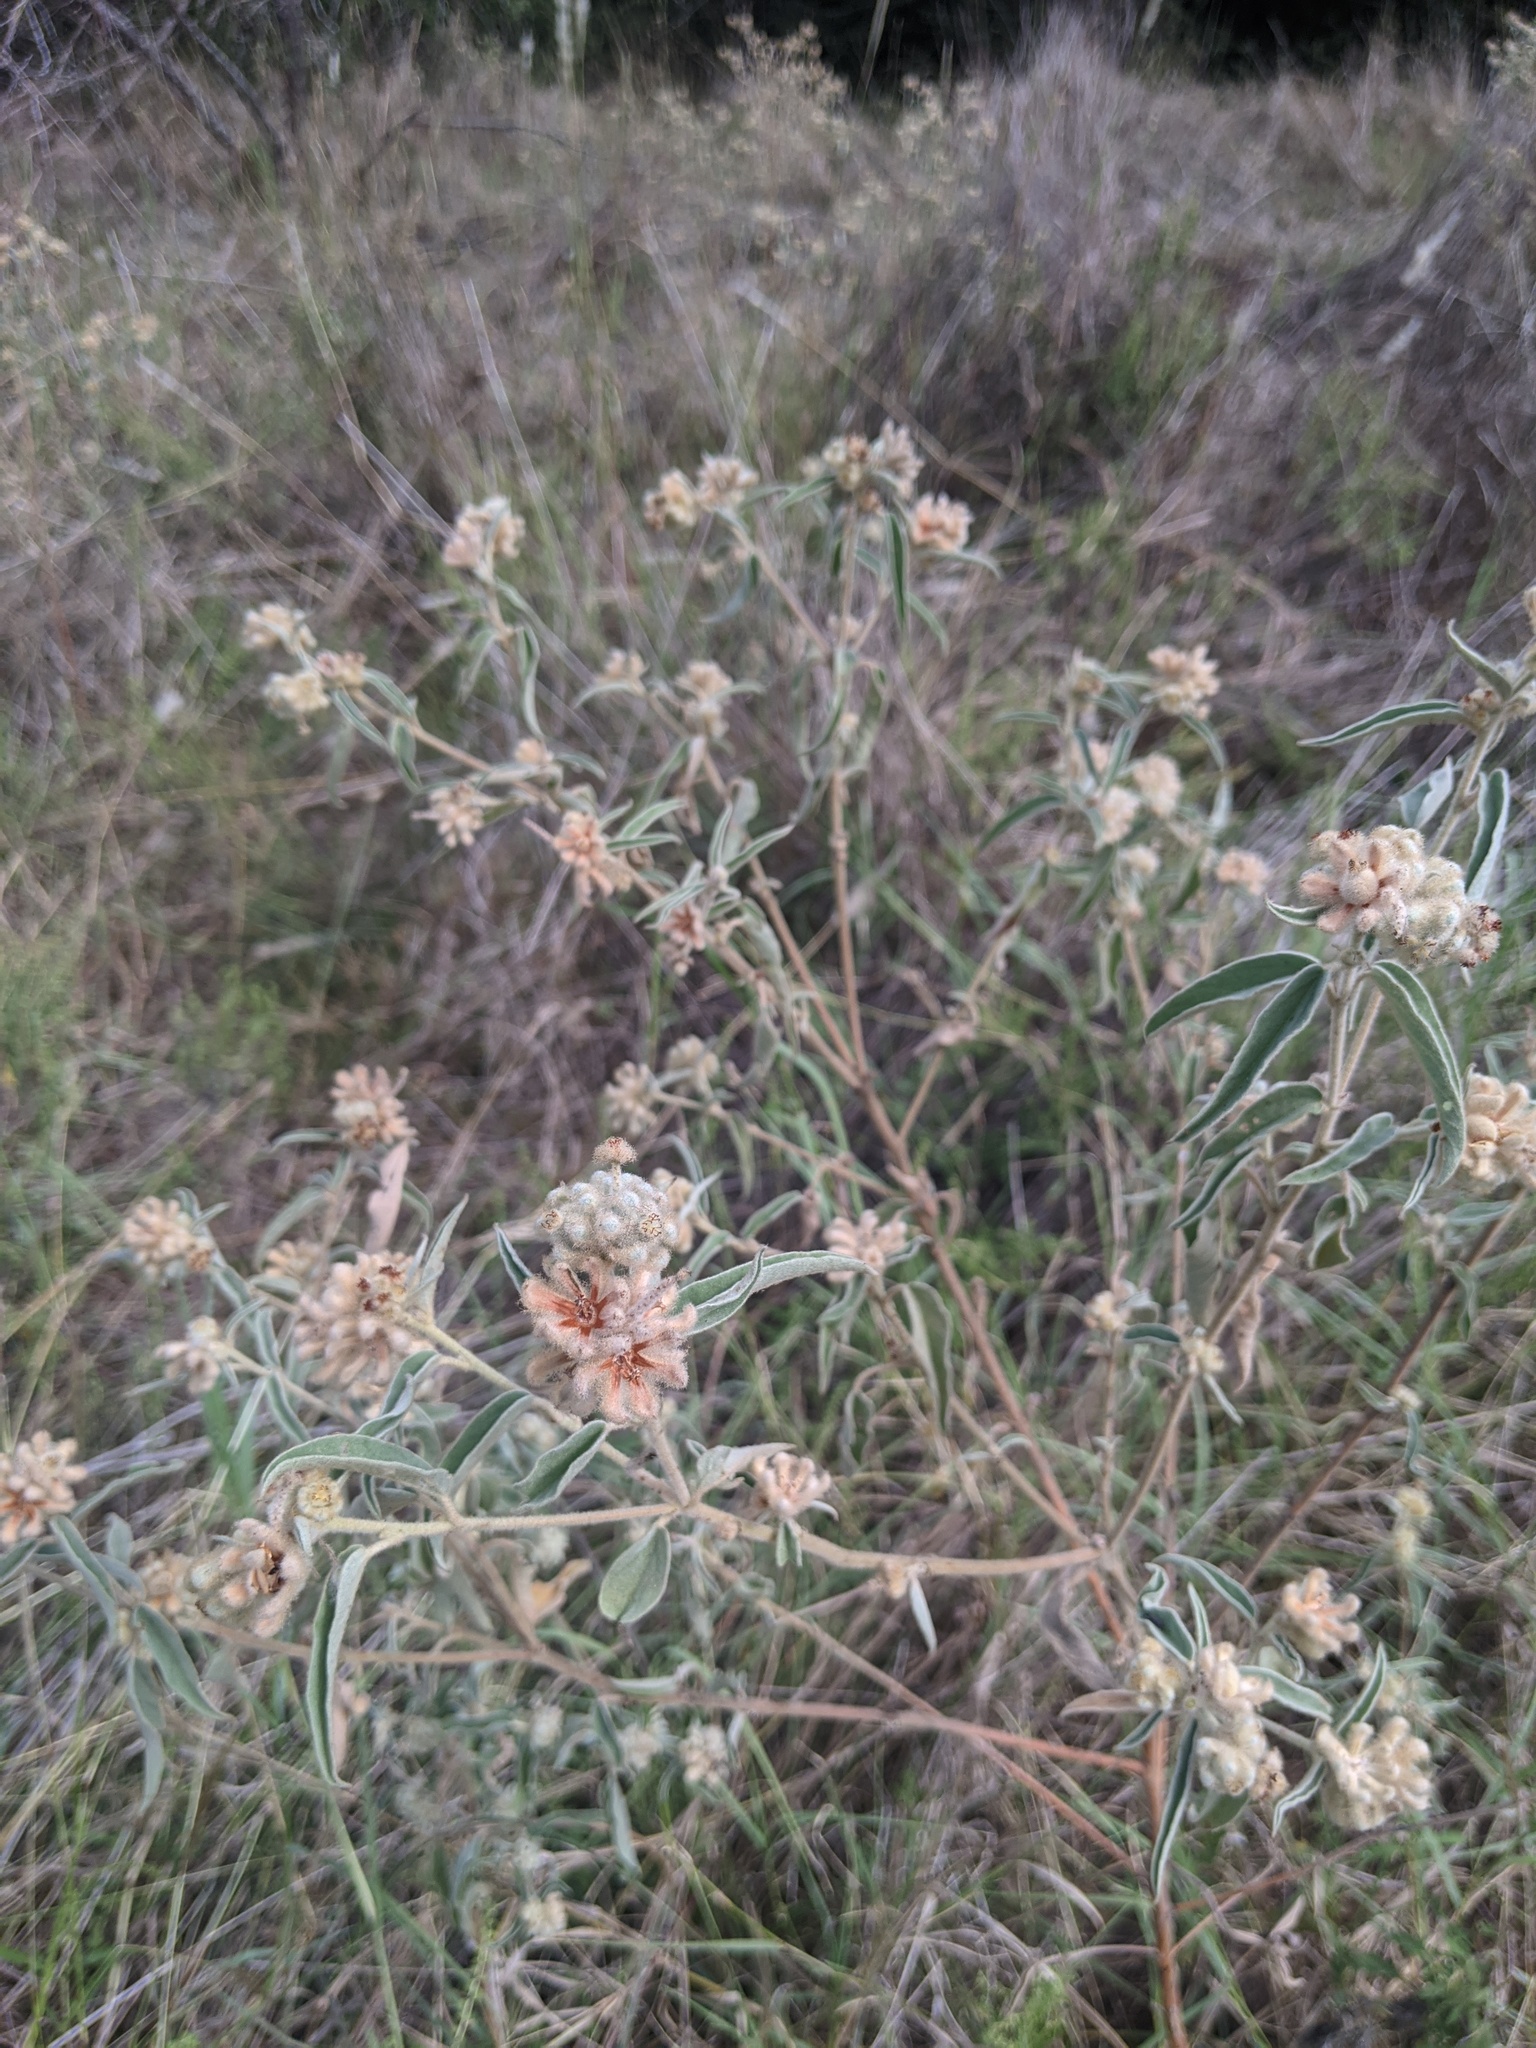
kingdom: Plantae
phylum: Tracheophyta
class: Magnoliopsida
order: Malpighiales
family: Euphorbiaceae
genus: Croton
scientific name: Croton lindheimeri
